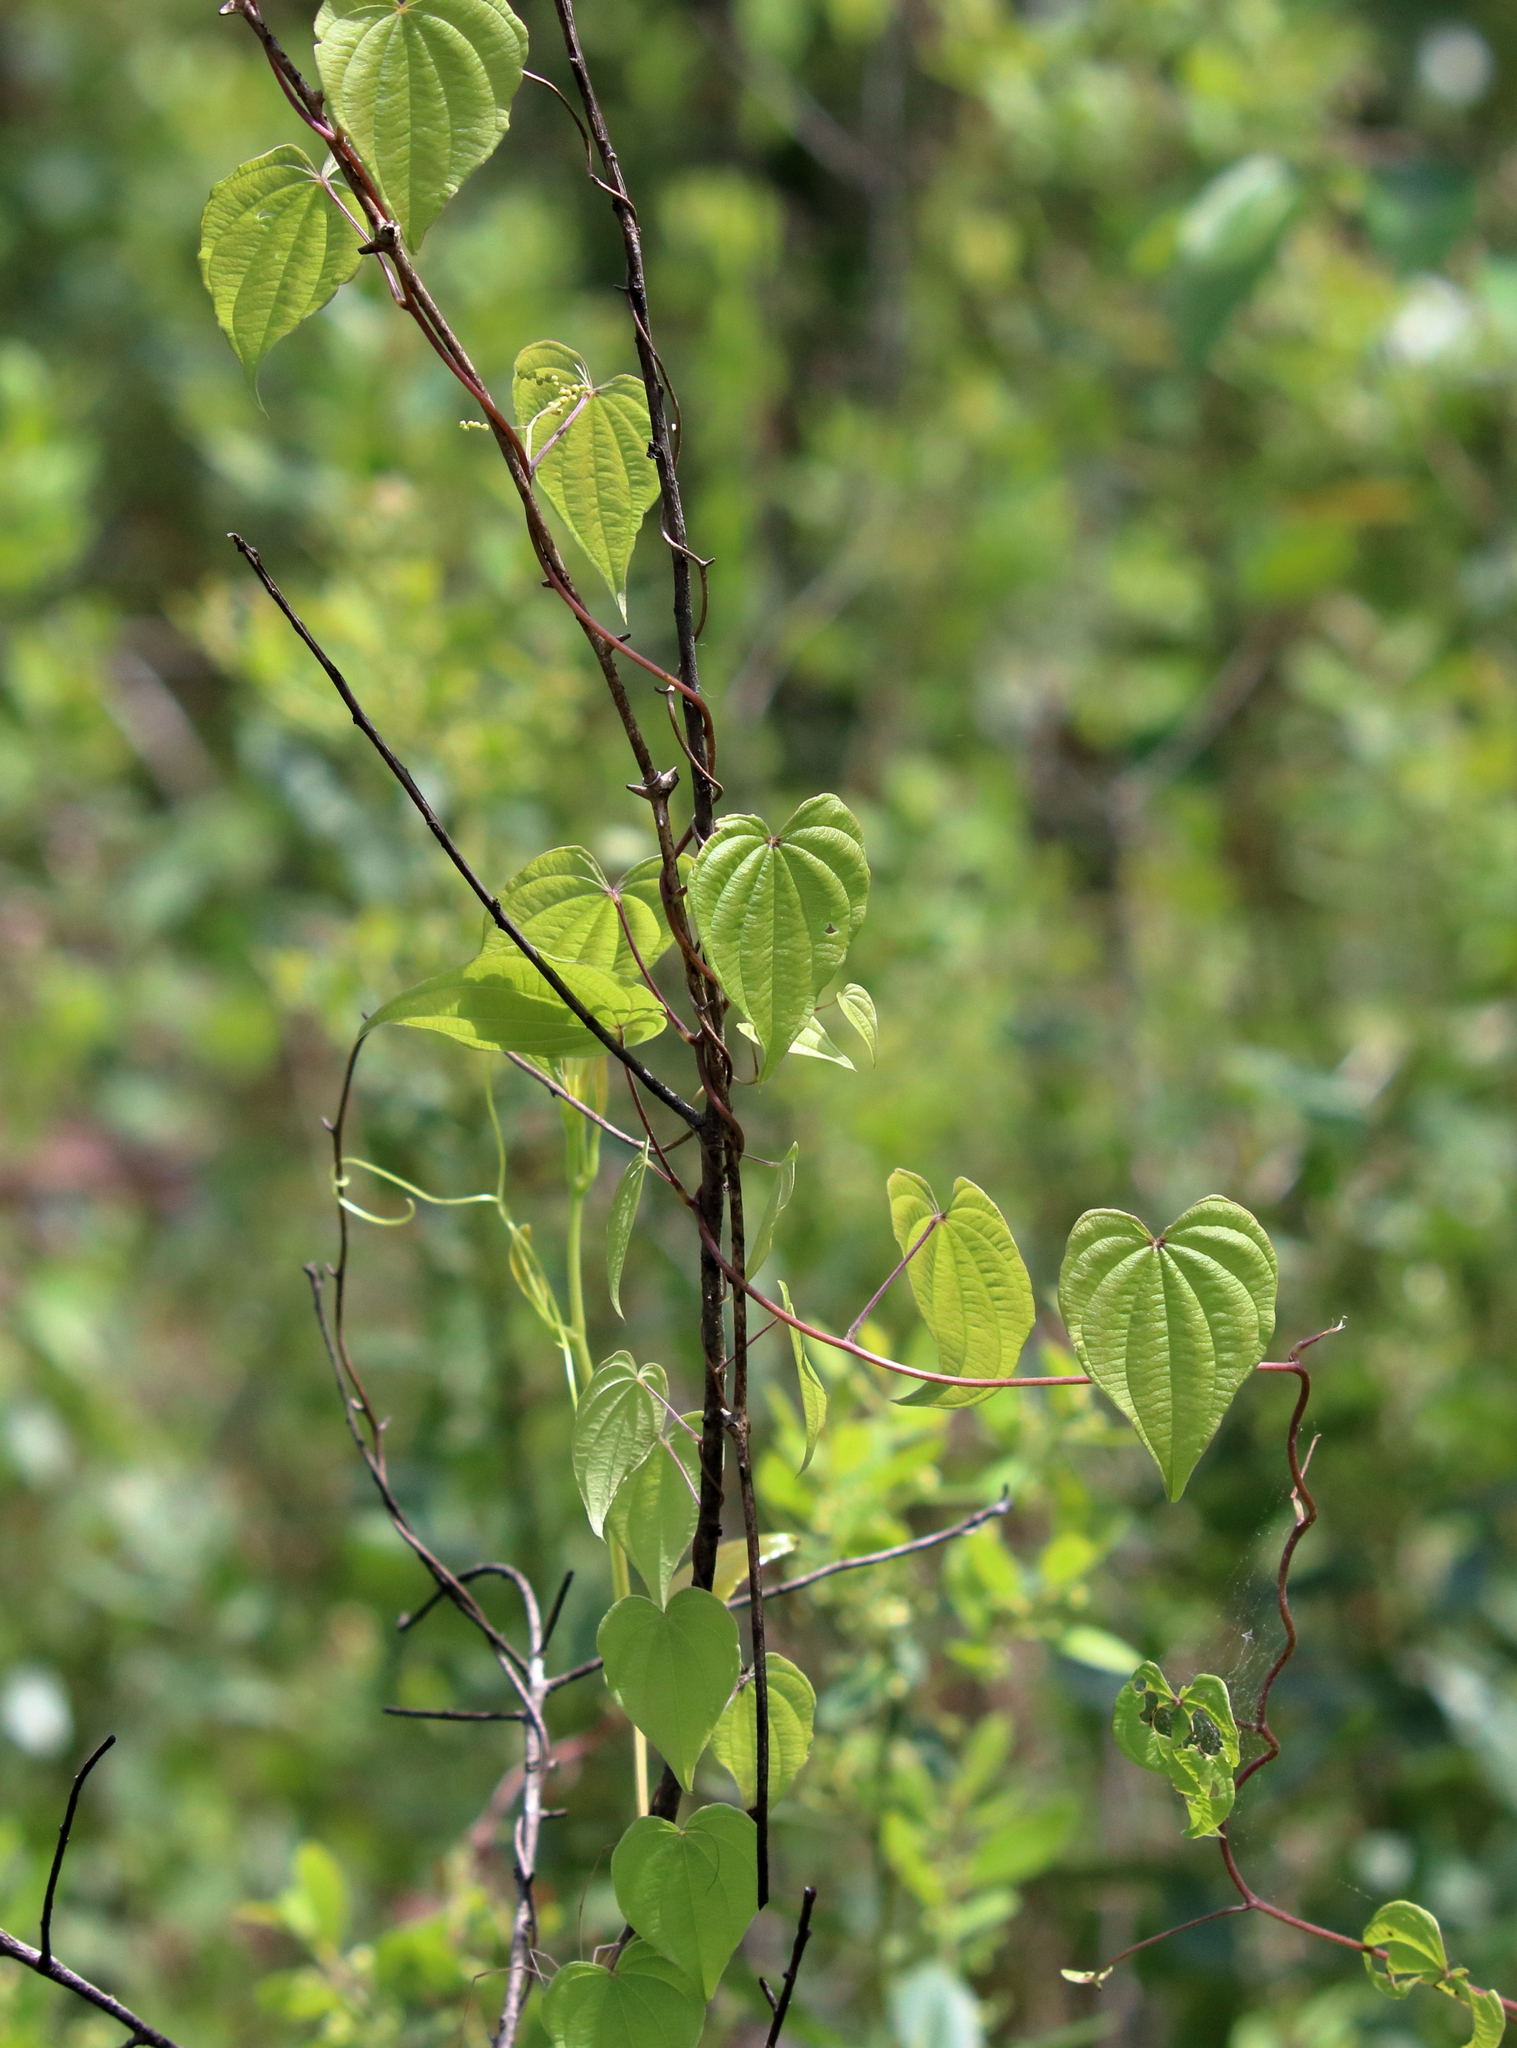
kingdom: Plantae
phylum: Tracheophyta
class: Liliopsida
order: Dioscoreales
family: Dioscoreaceae
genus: Dioscorea
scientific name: Dioscorea villosa
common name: Wild yam
